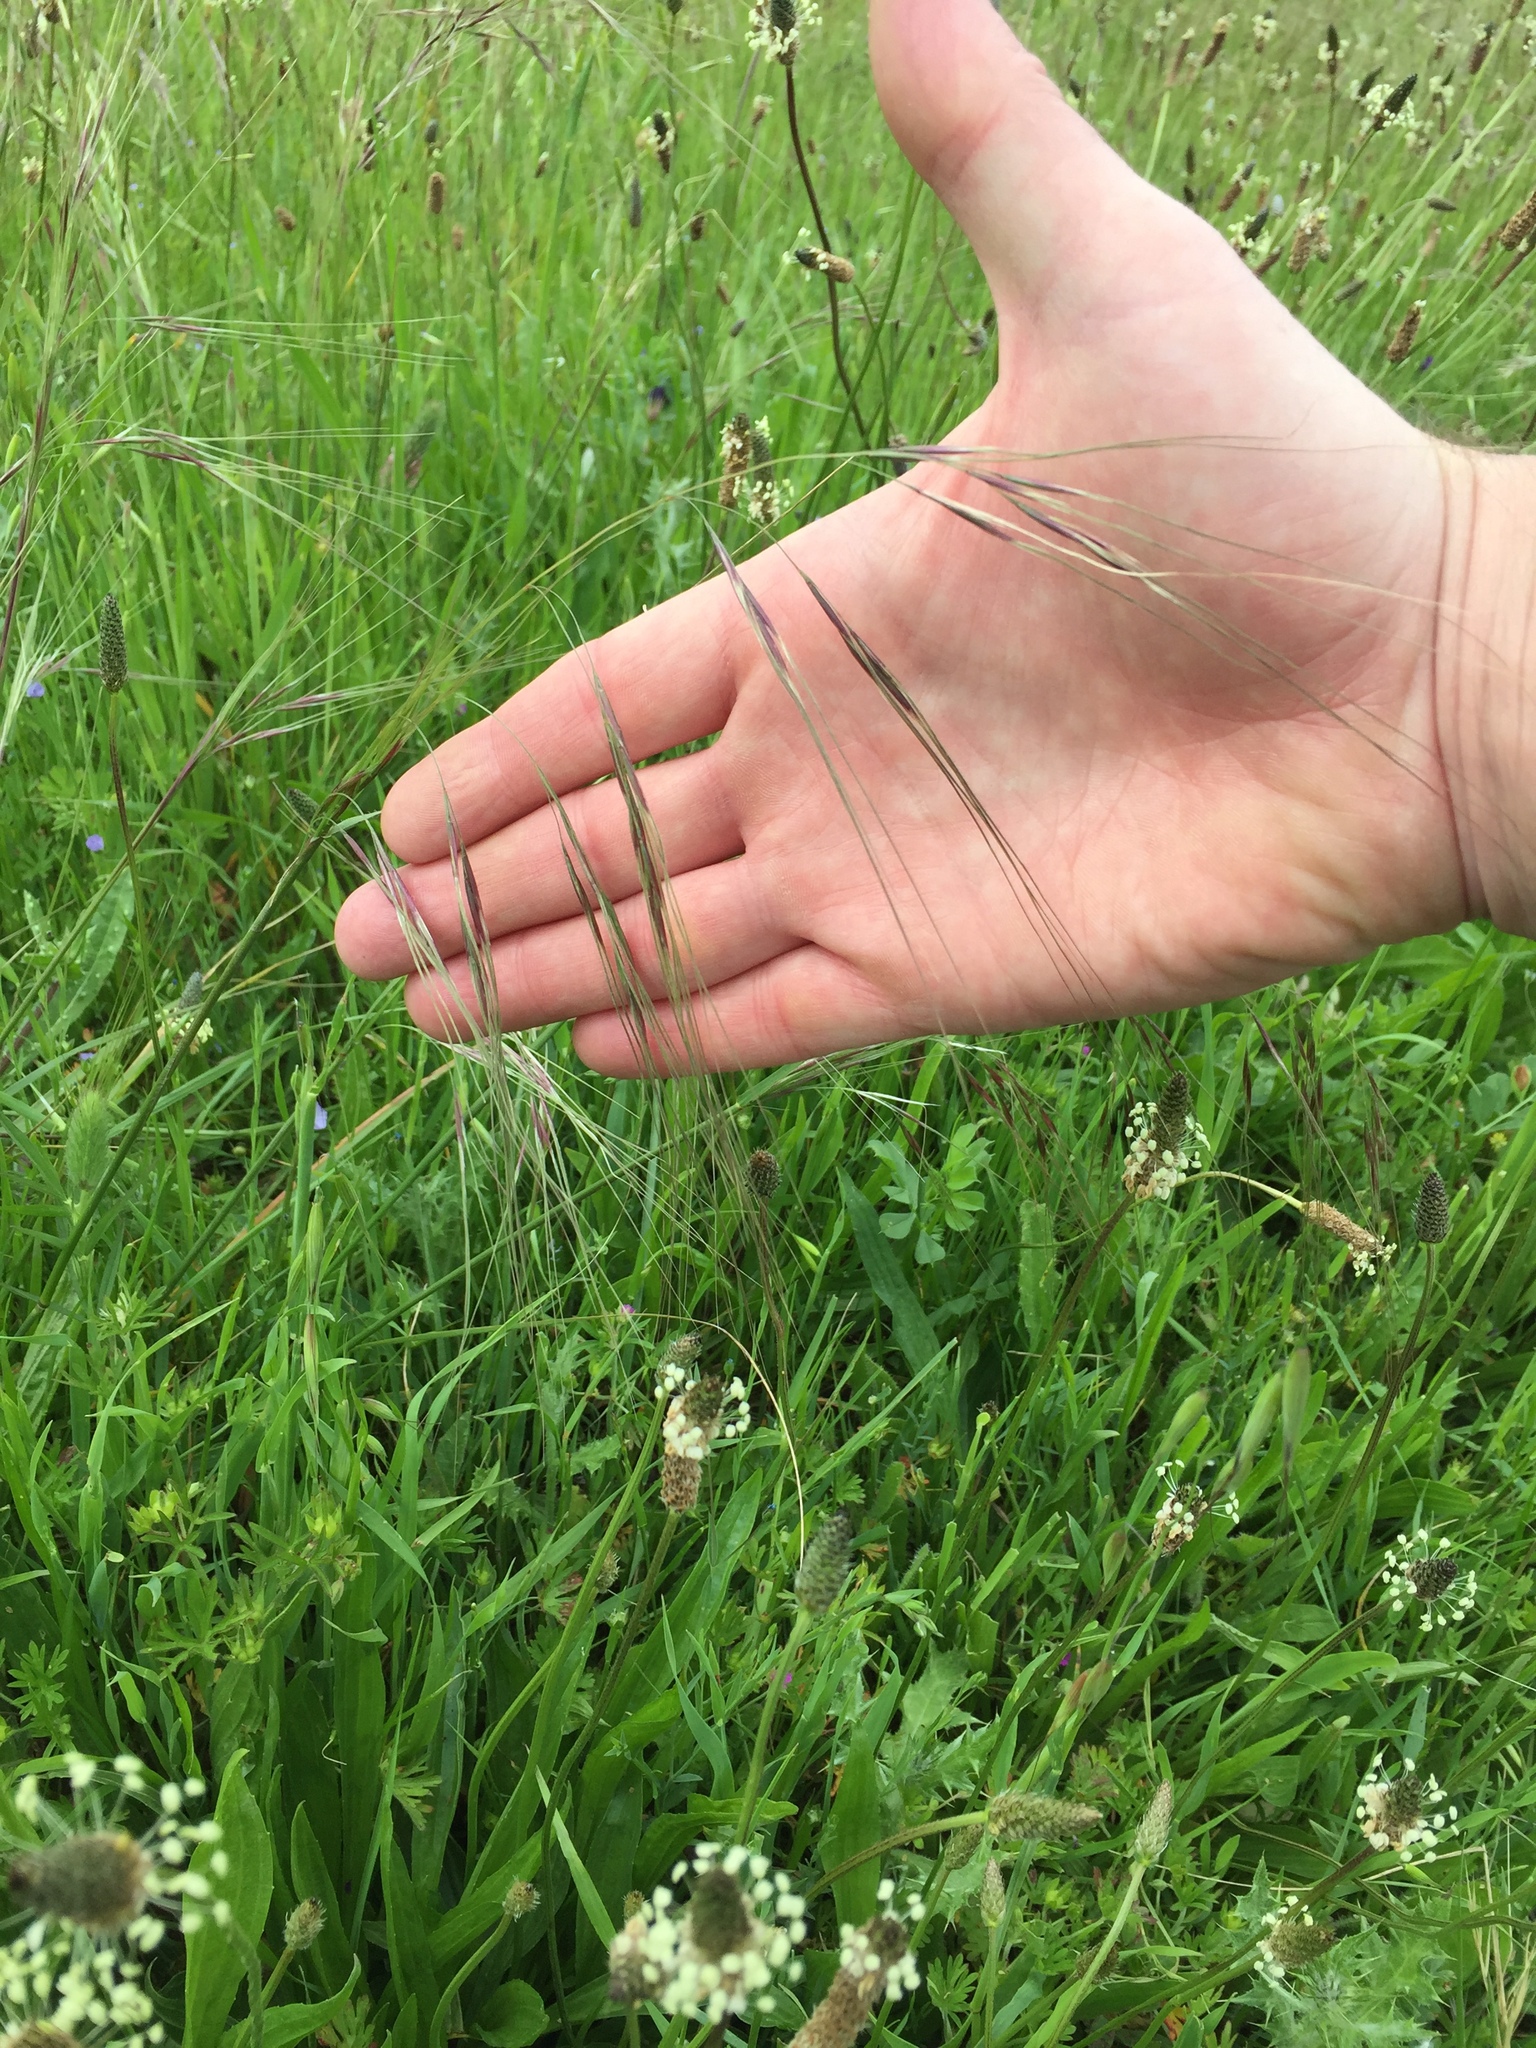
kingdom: Plantae
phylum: Tracheophyta
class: Liliopsida
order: Poales
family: Poaceae
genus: Nassella
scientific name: Nassella pulchra
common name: Purple needlegrass
